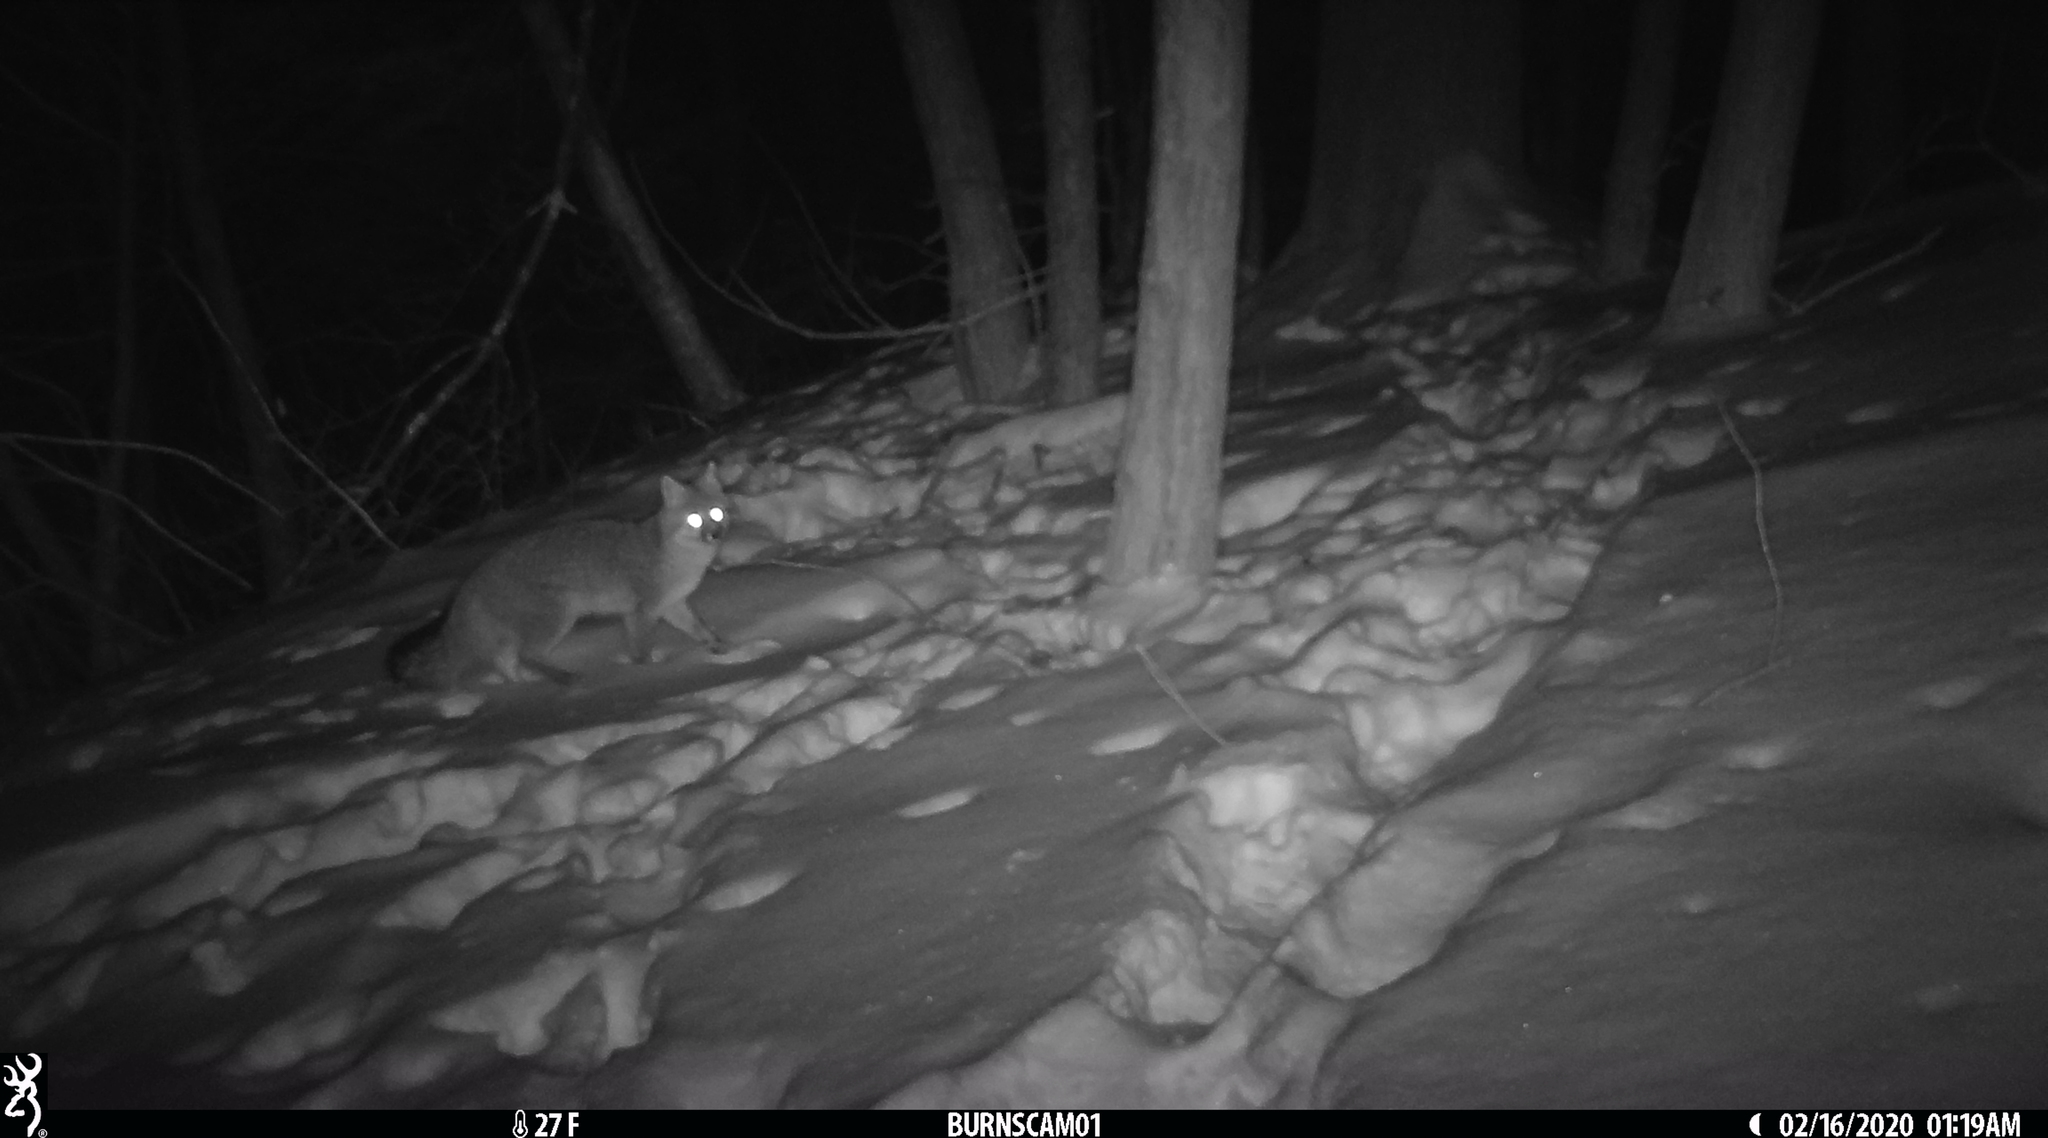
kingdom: Animalia
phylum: Chordata
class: Mammalia
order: Carnivora
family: Canidae
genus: Urocyon
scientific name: Urocyon cinereoargenteus
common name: Gray fox
